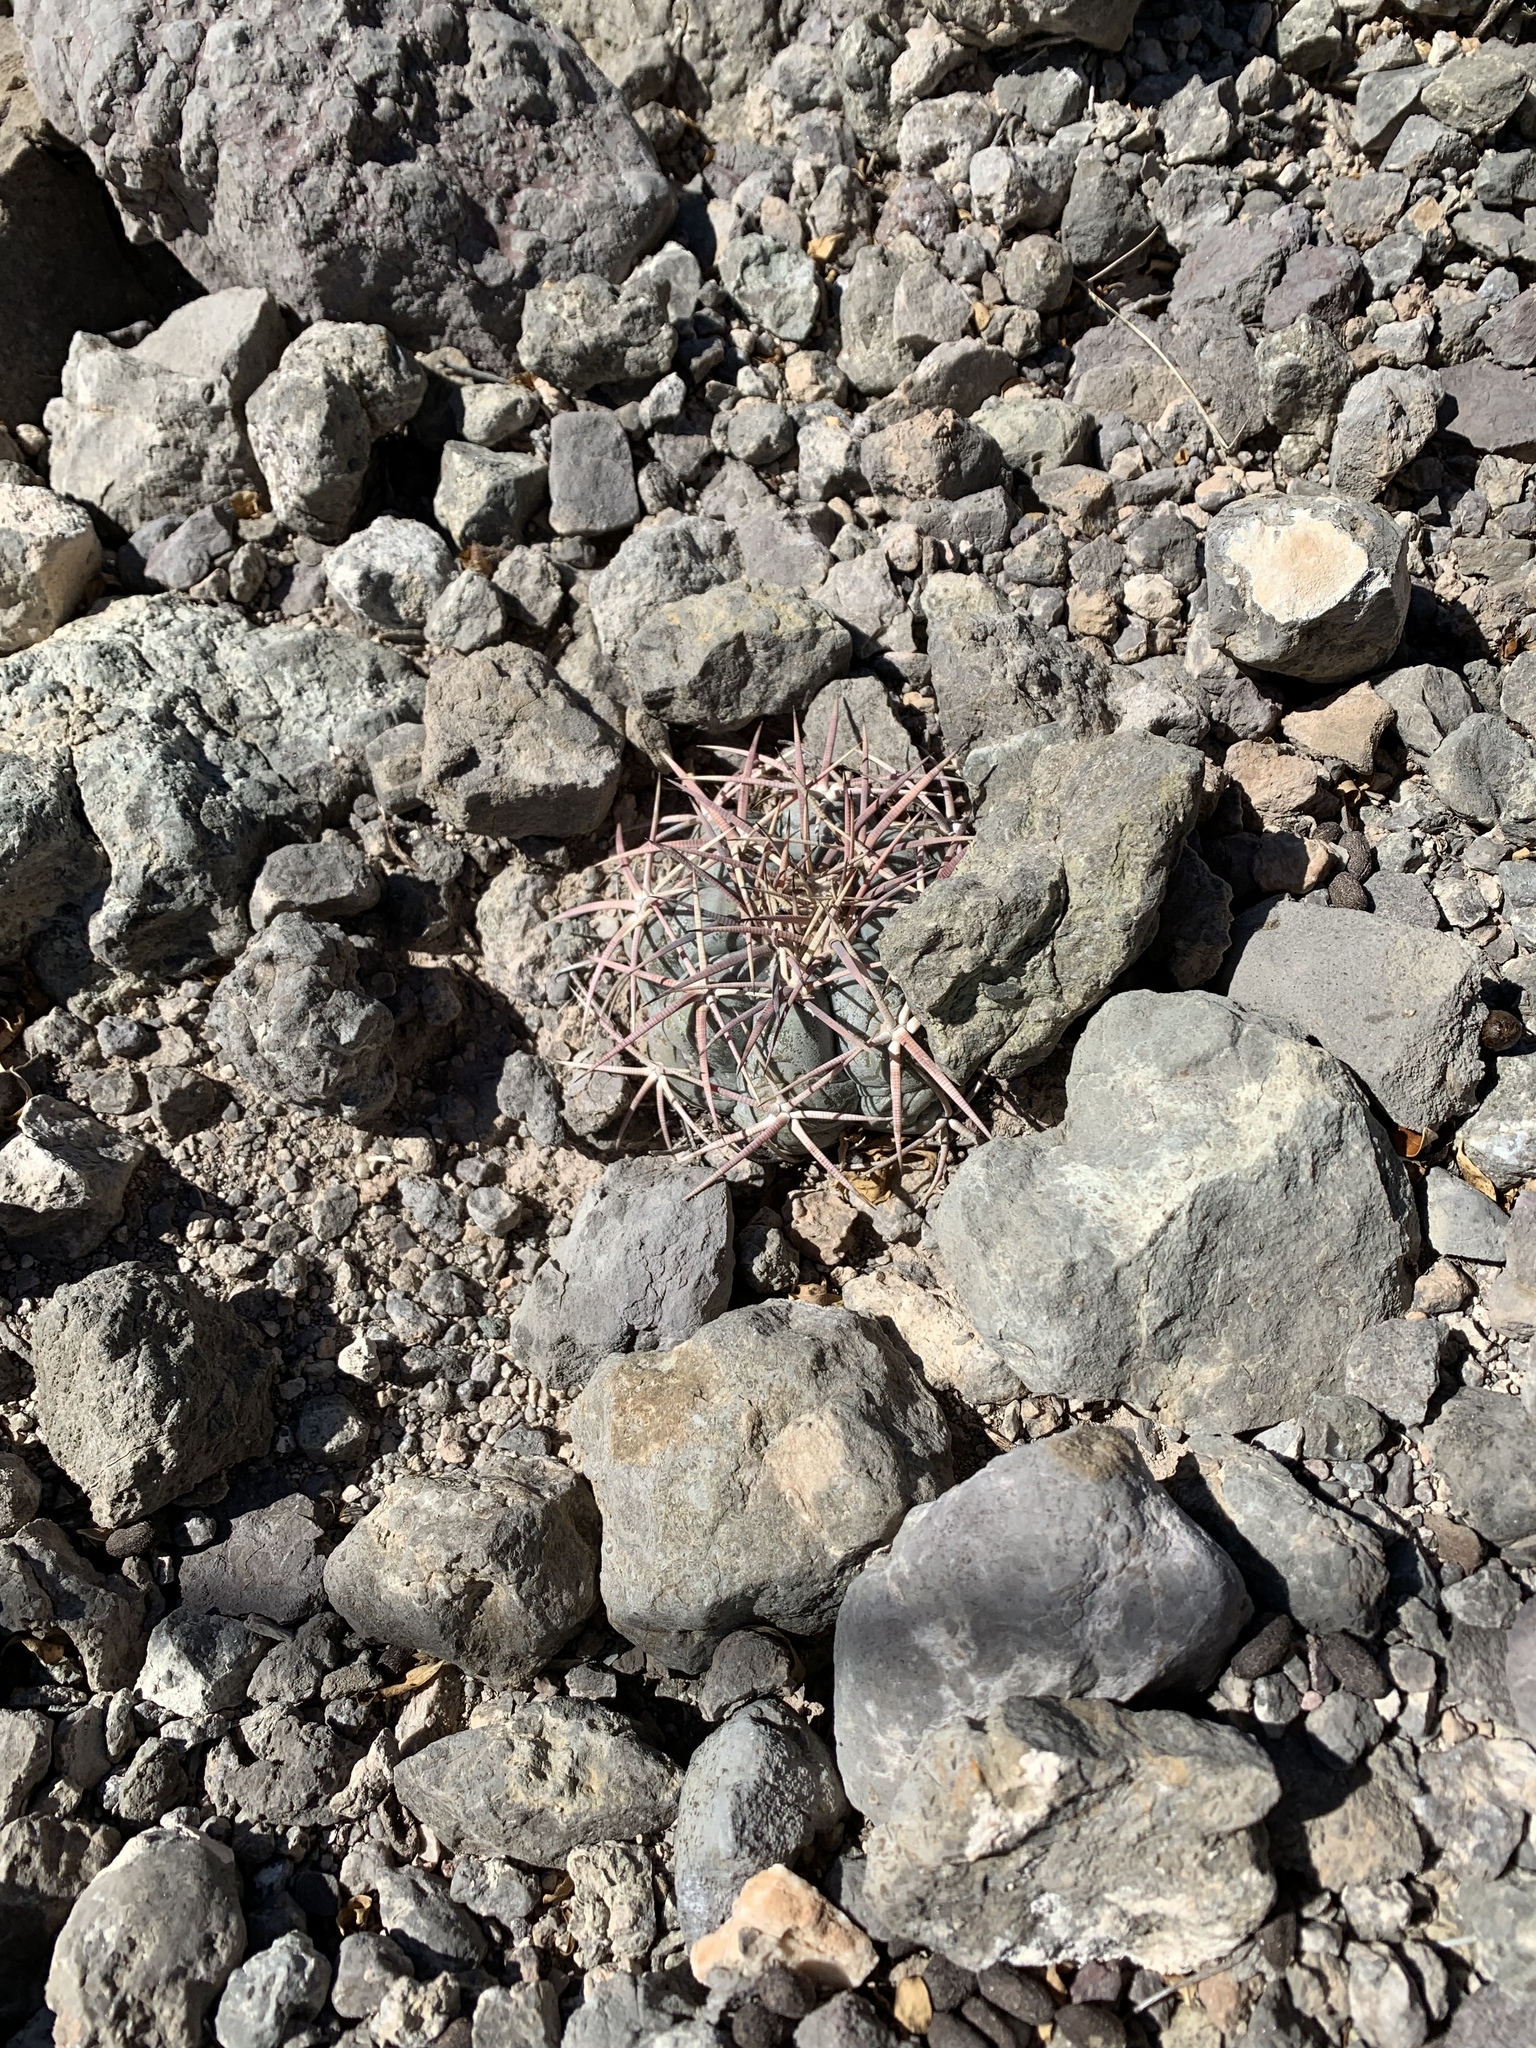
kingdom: Plantae
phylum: Tracheophyta
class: Magnoliopsida
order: Caryophyllales
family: Cactaceae
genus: Echinocactus
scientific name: Echinocactus horizonthalonius
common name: Devilshead
